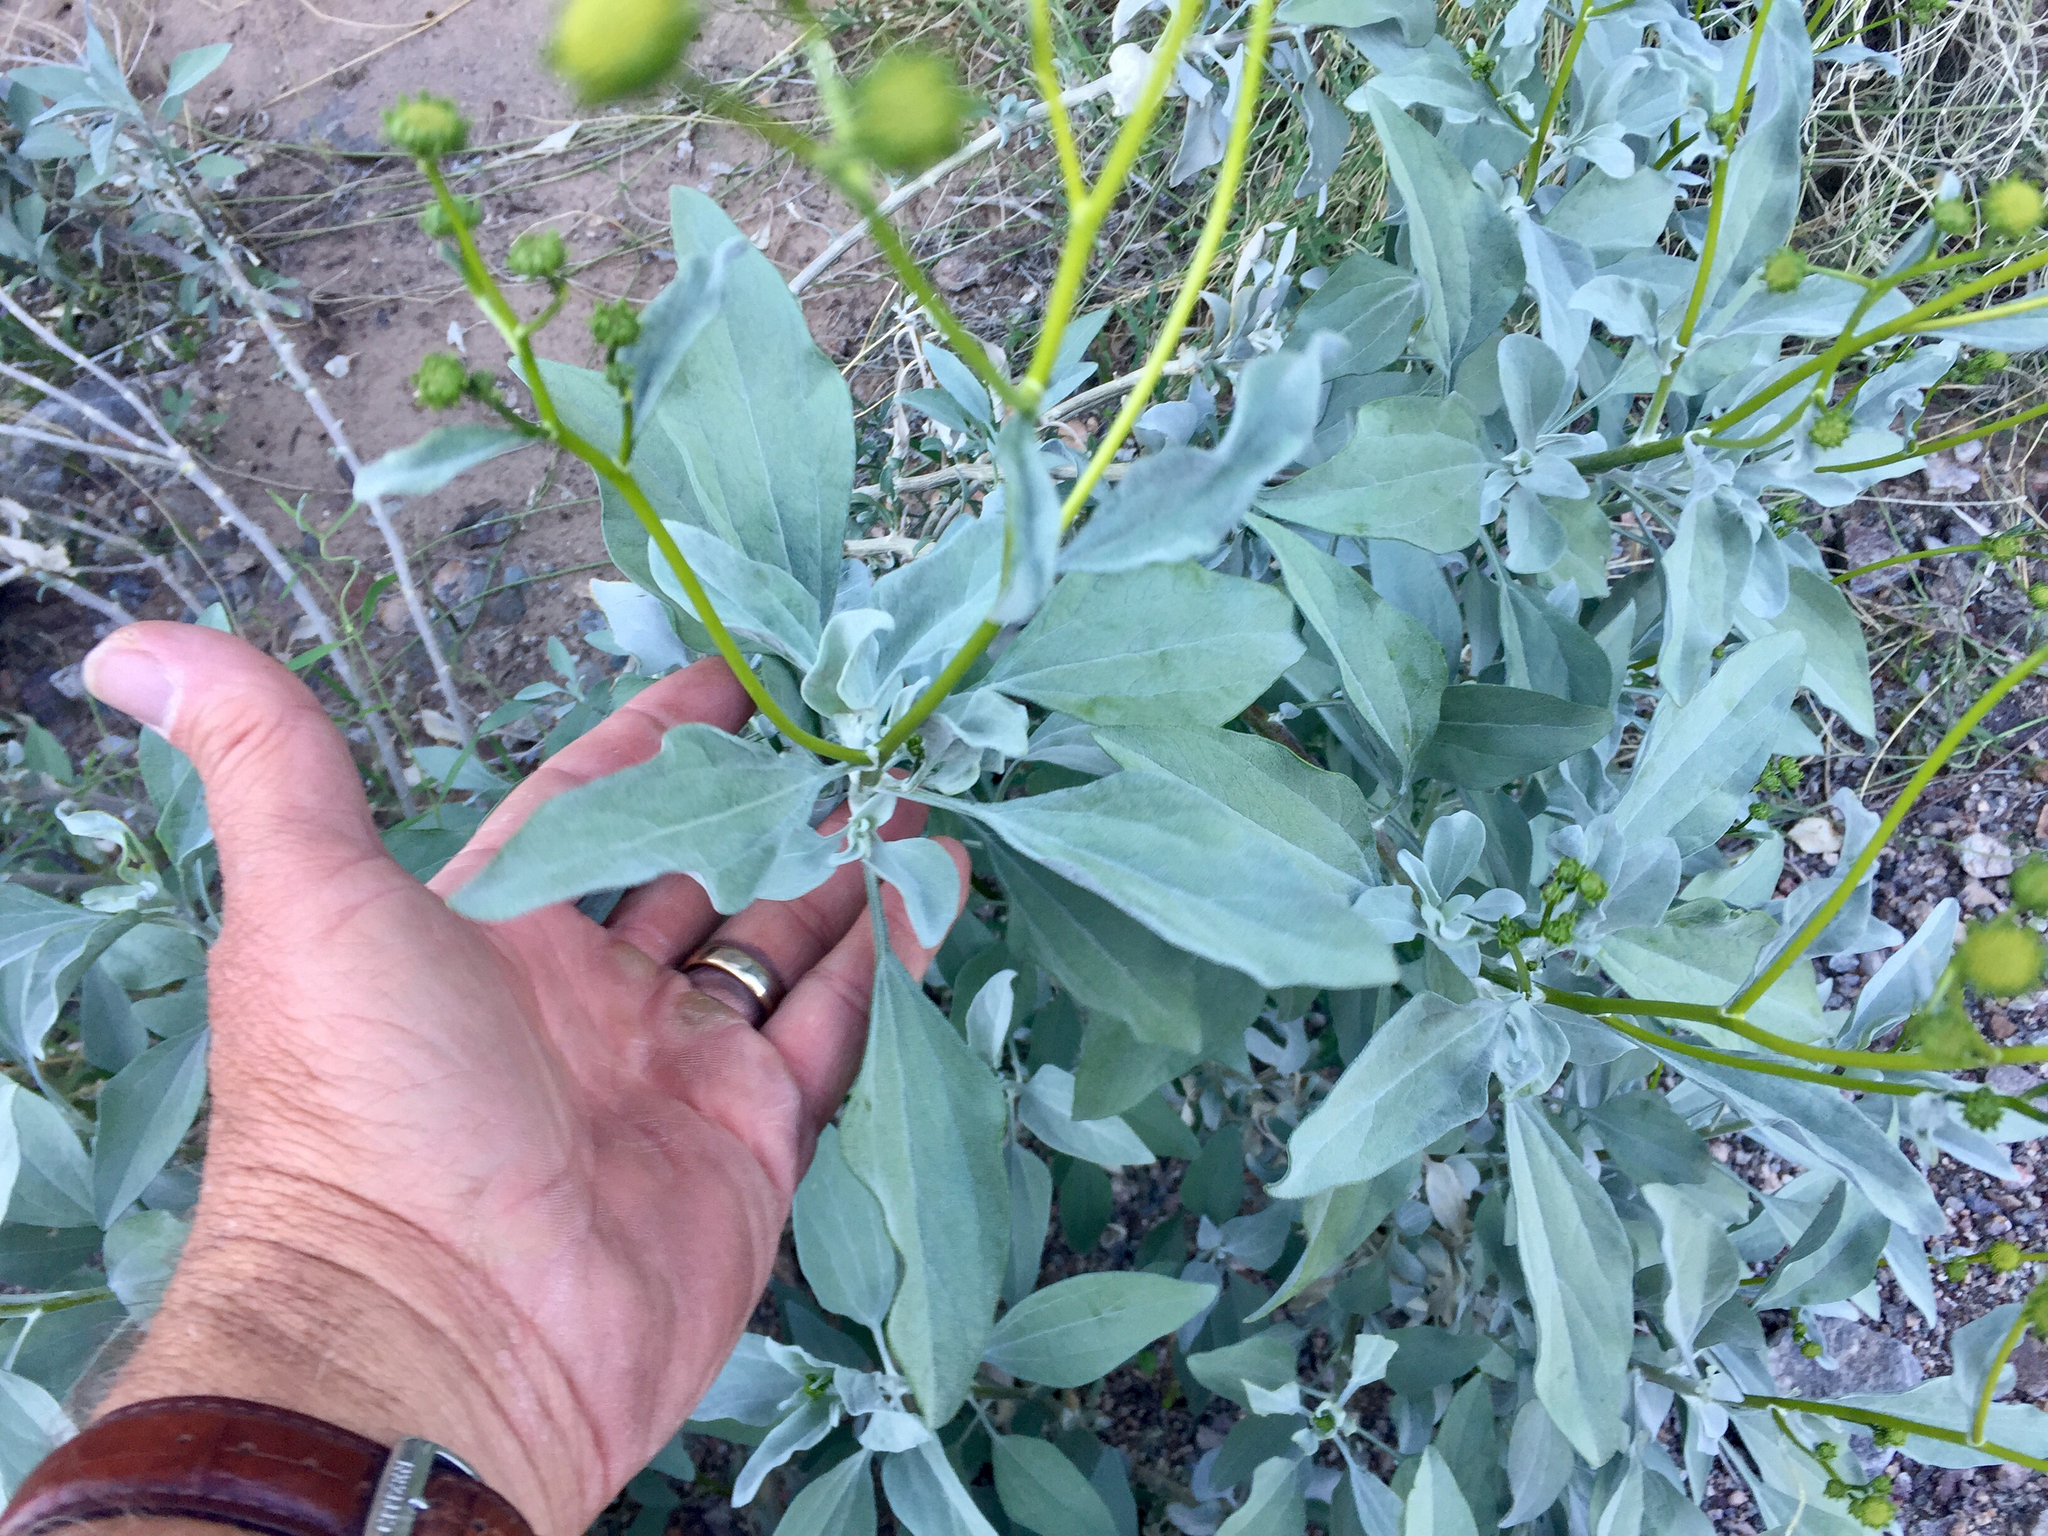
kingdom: Plantae
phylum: Tracheophyta
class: Magnoliopsida
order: Asterales
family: Asteraceae
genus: Encelia
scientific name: Encelia farinosa
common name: Brittlebush
